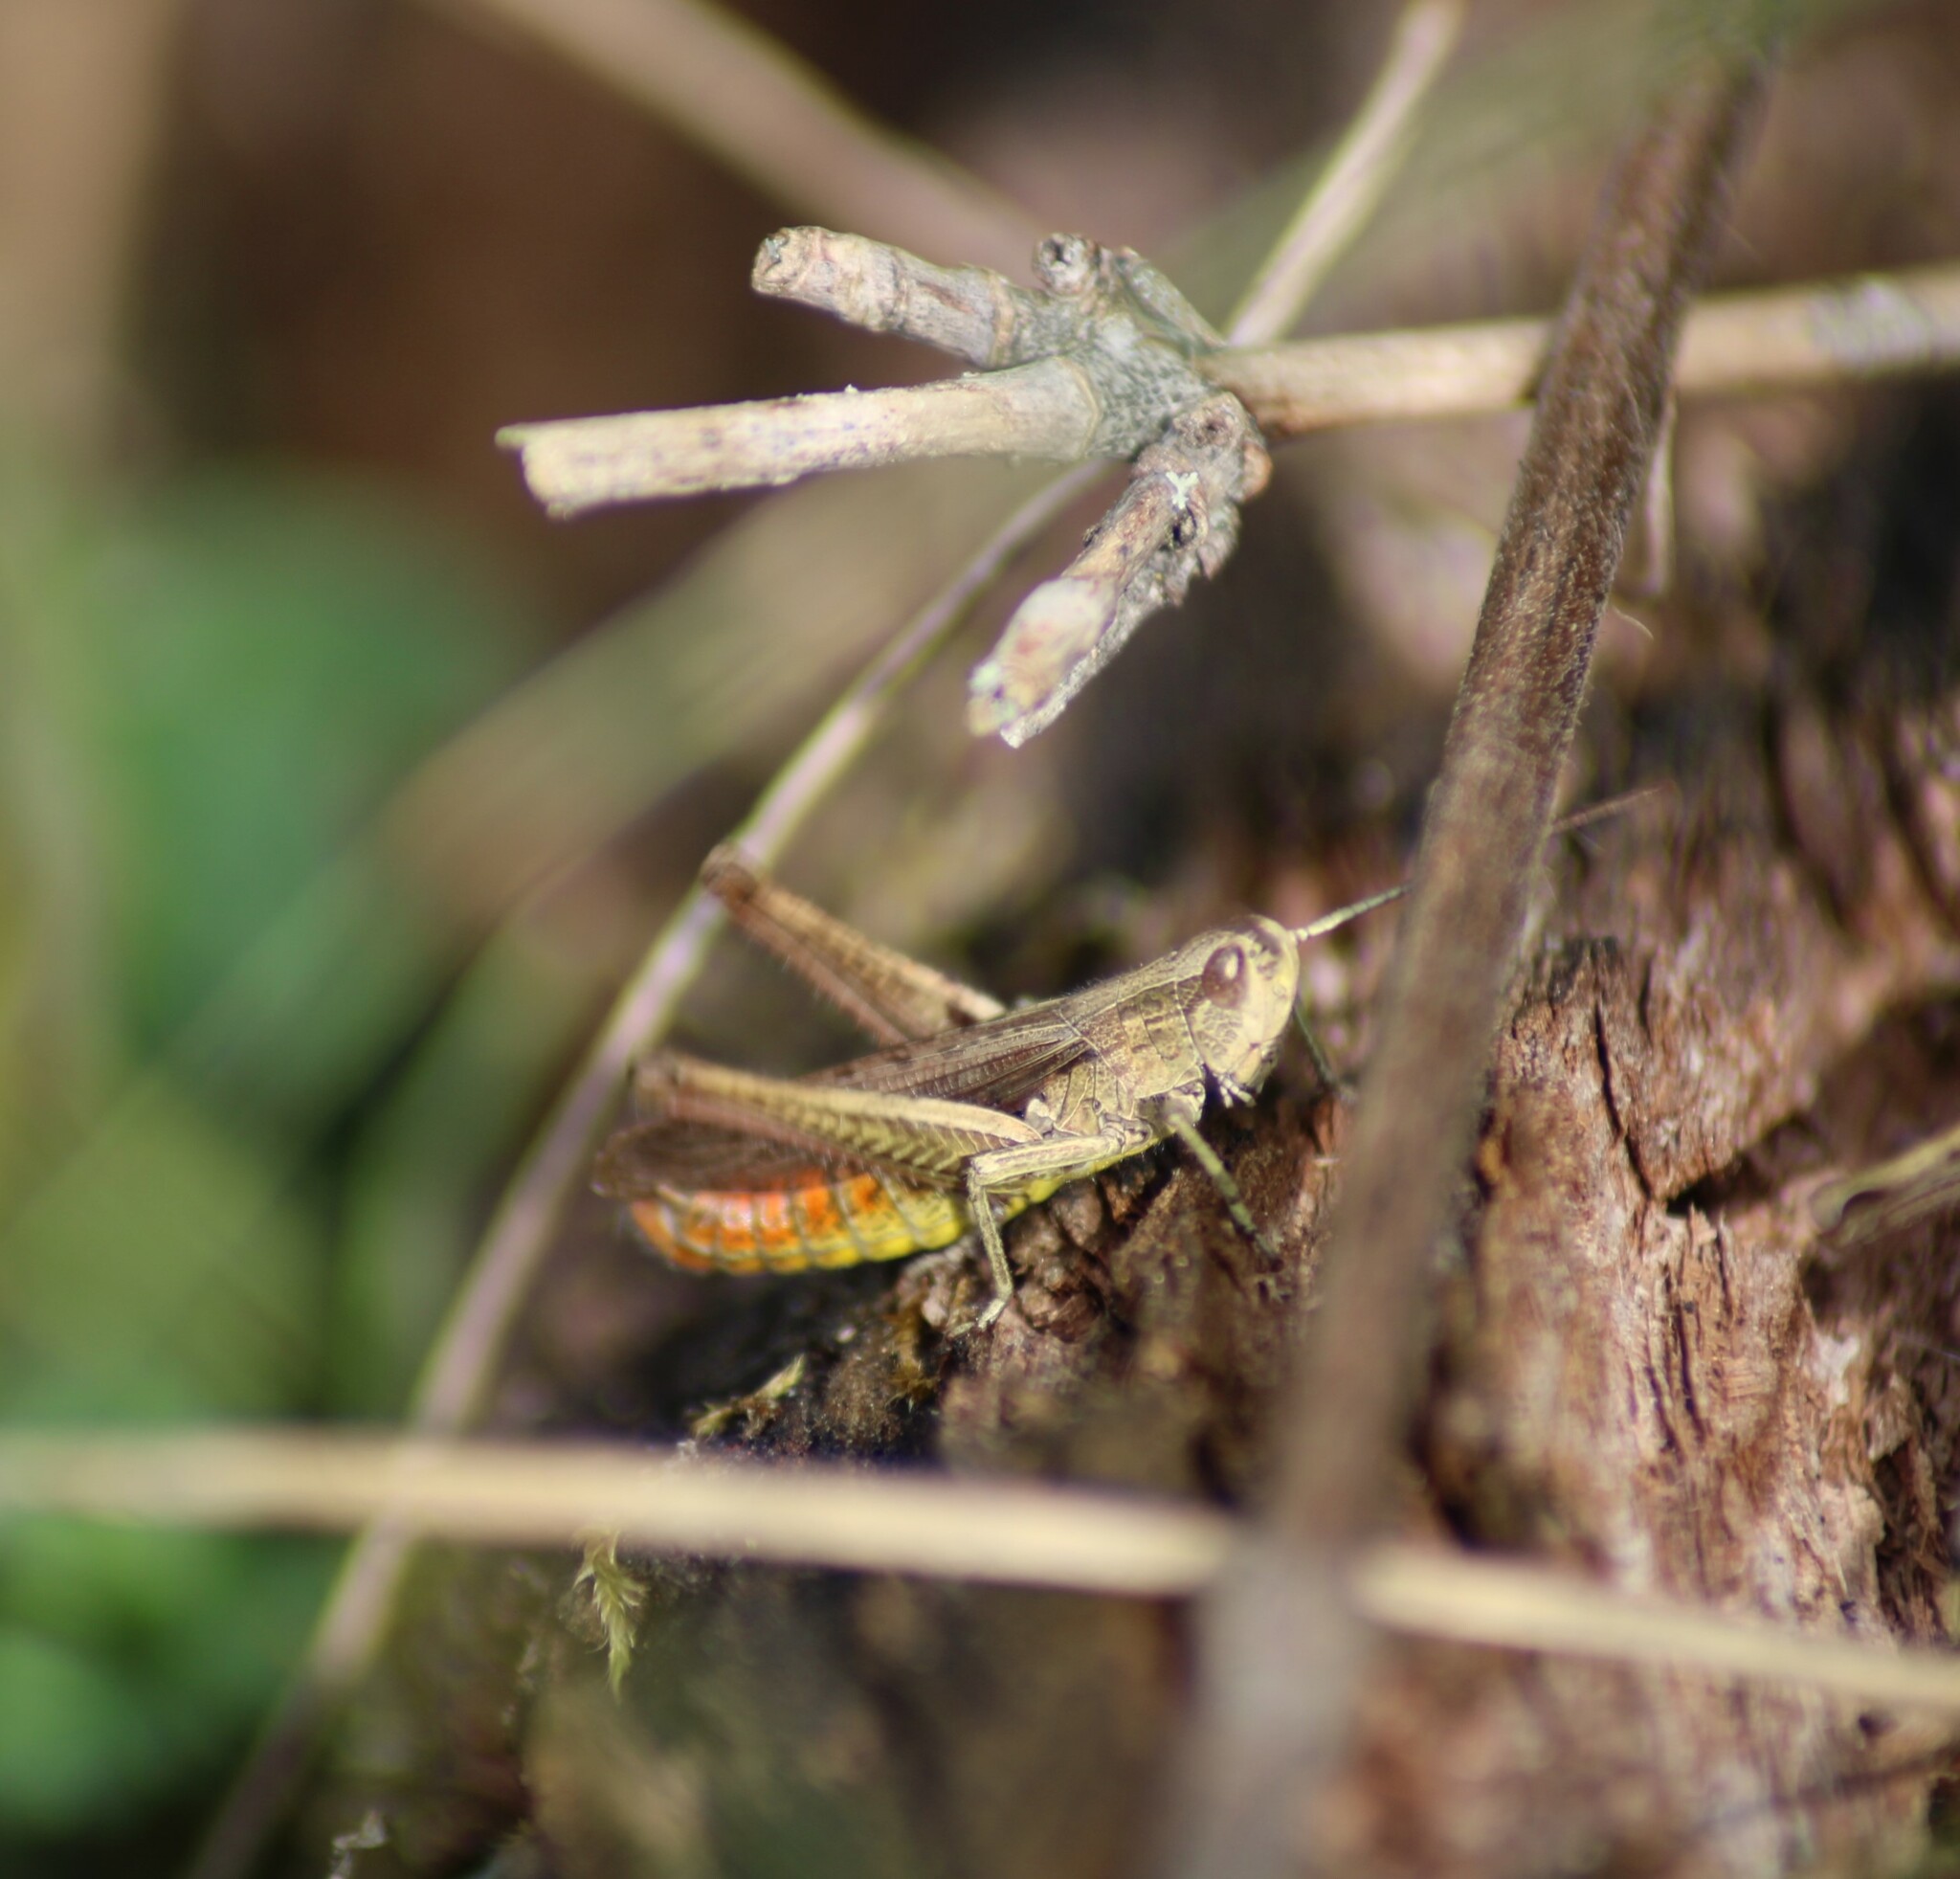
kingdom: Animalia
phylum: Arthropoda
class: Insecta
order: Orthoptera
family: Acrididae
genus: Chorthippus
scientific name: Chorthippus dorsatus
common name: Steppe grasshopper
